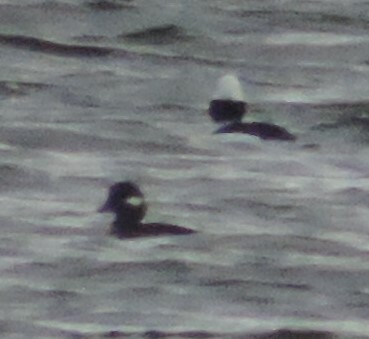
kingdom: Animalia
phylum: Chordata
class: Aves
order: Anseriformes
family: Anatidae
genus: Bucephala
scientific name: Bucephala albeola
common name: Bufflehead
